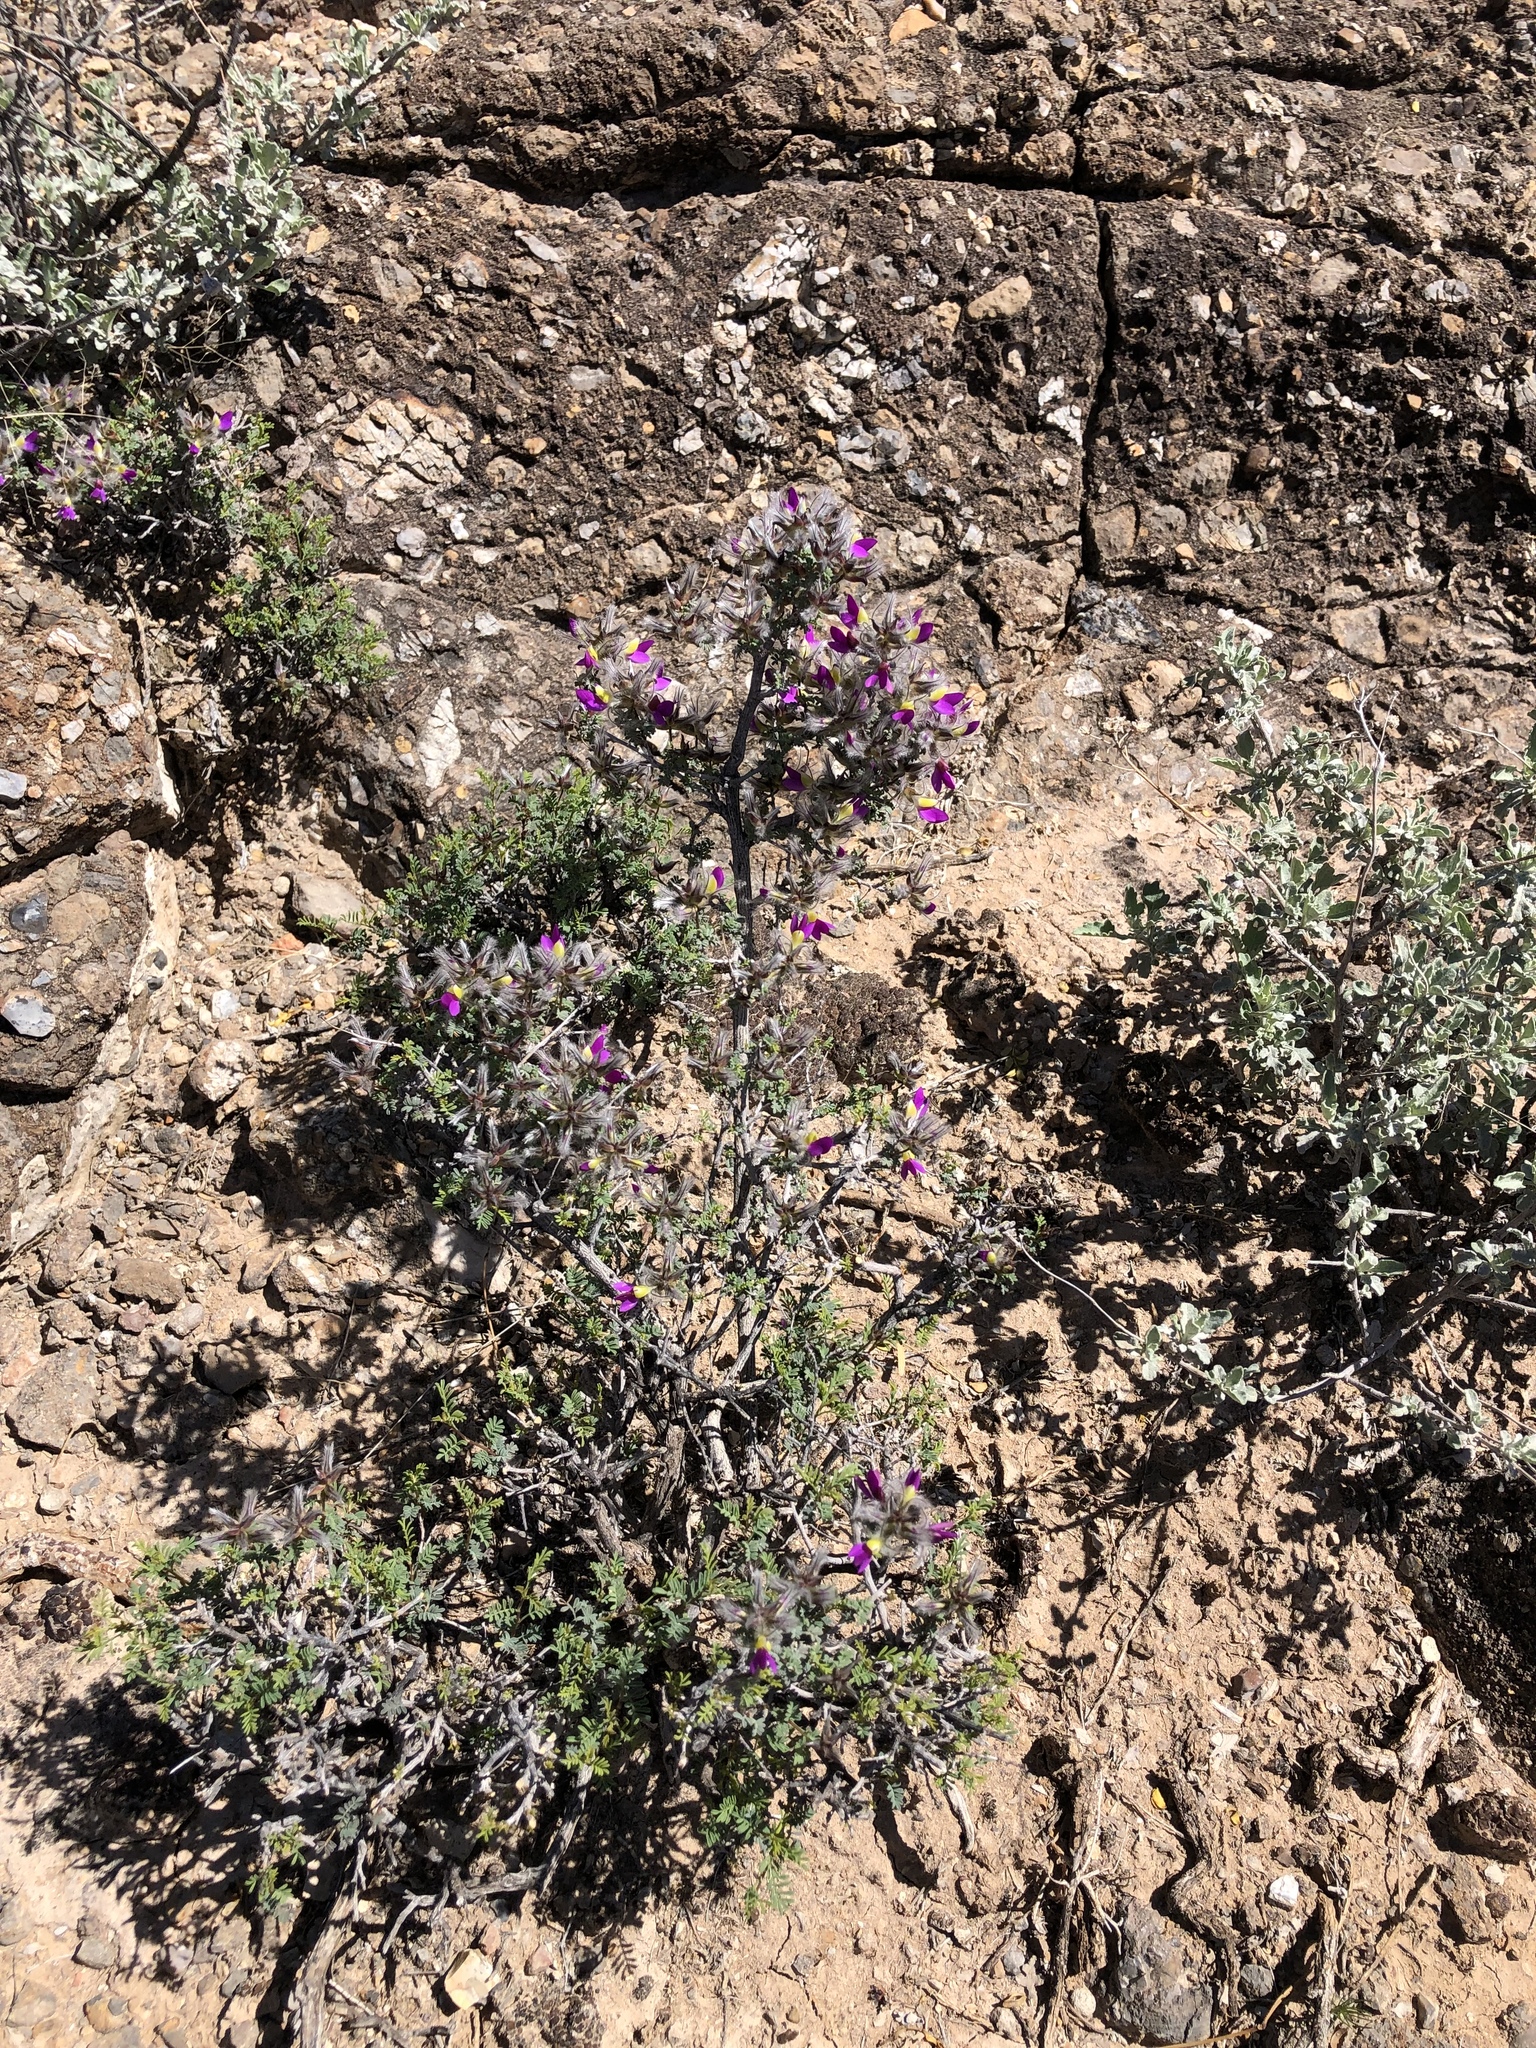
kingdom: Plantae
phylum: Tracheophyta
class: Magnoliopsida
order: Fabales
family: Fabaceae
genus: Dalea
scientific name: Dalea formosa
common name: Feather-plume dalea
